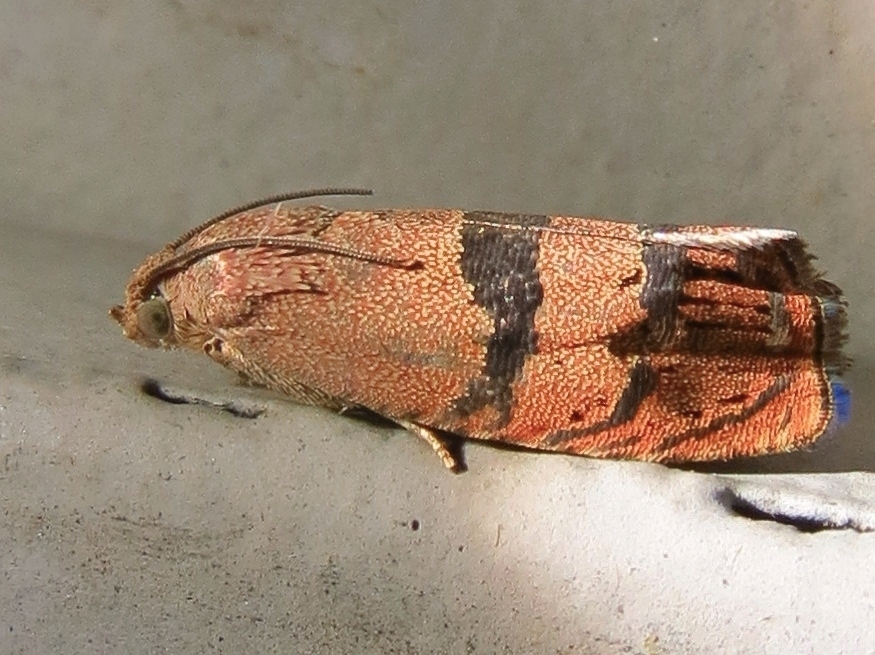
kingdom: Animalia
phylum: Arthropoda
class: Insecta
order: Lepidoptera
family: Tortricidae
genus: Cydia
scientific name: Cydia latiferreana
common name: Filbertworm moth
